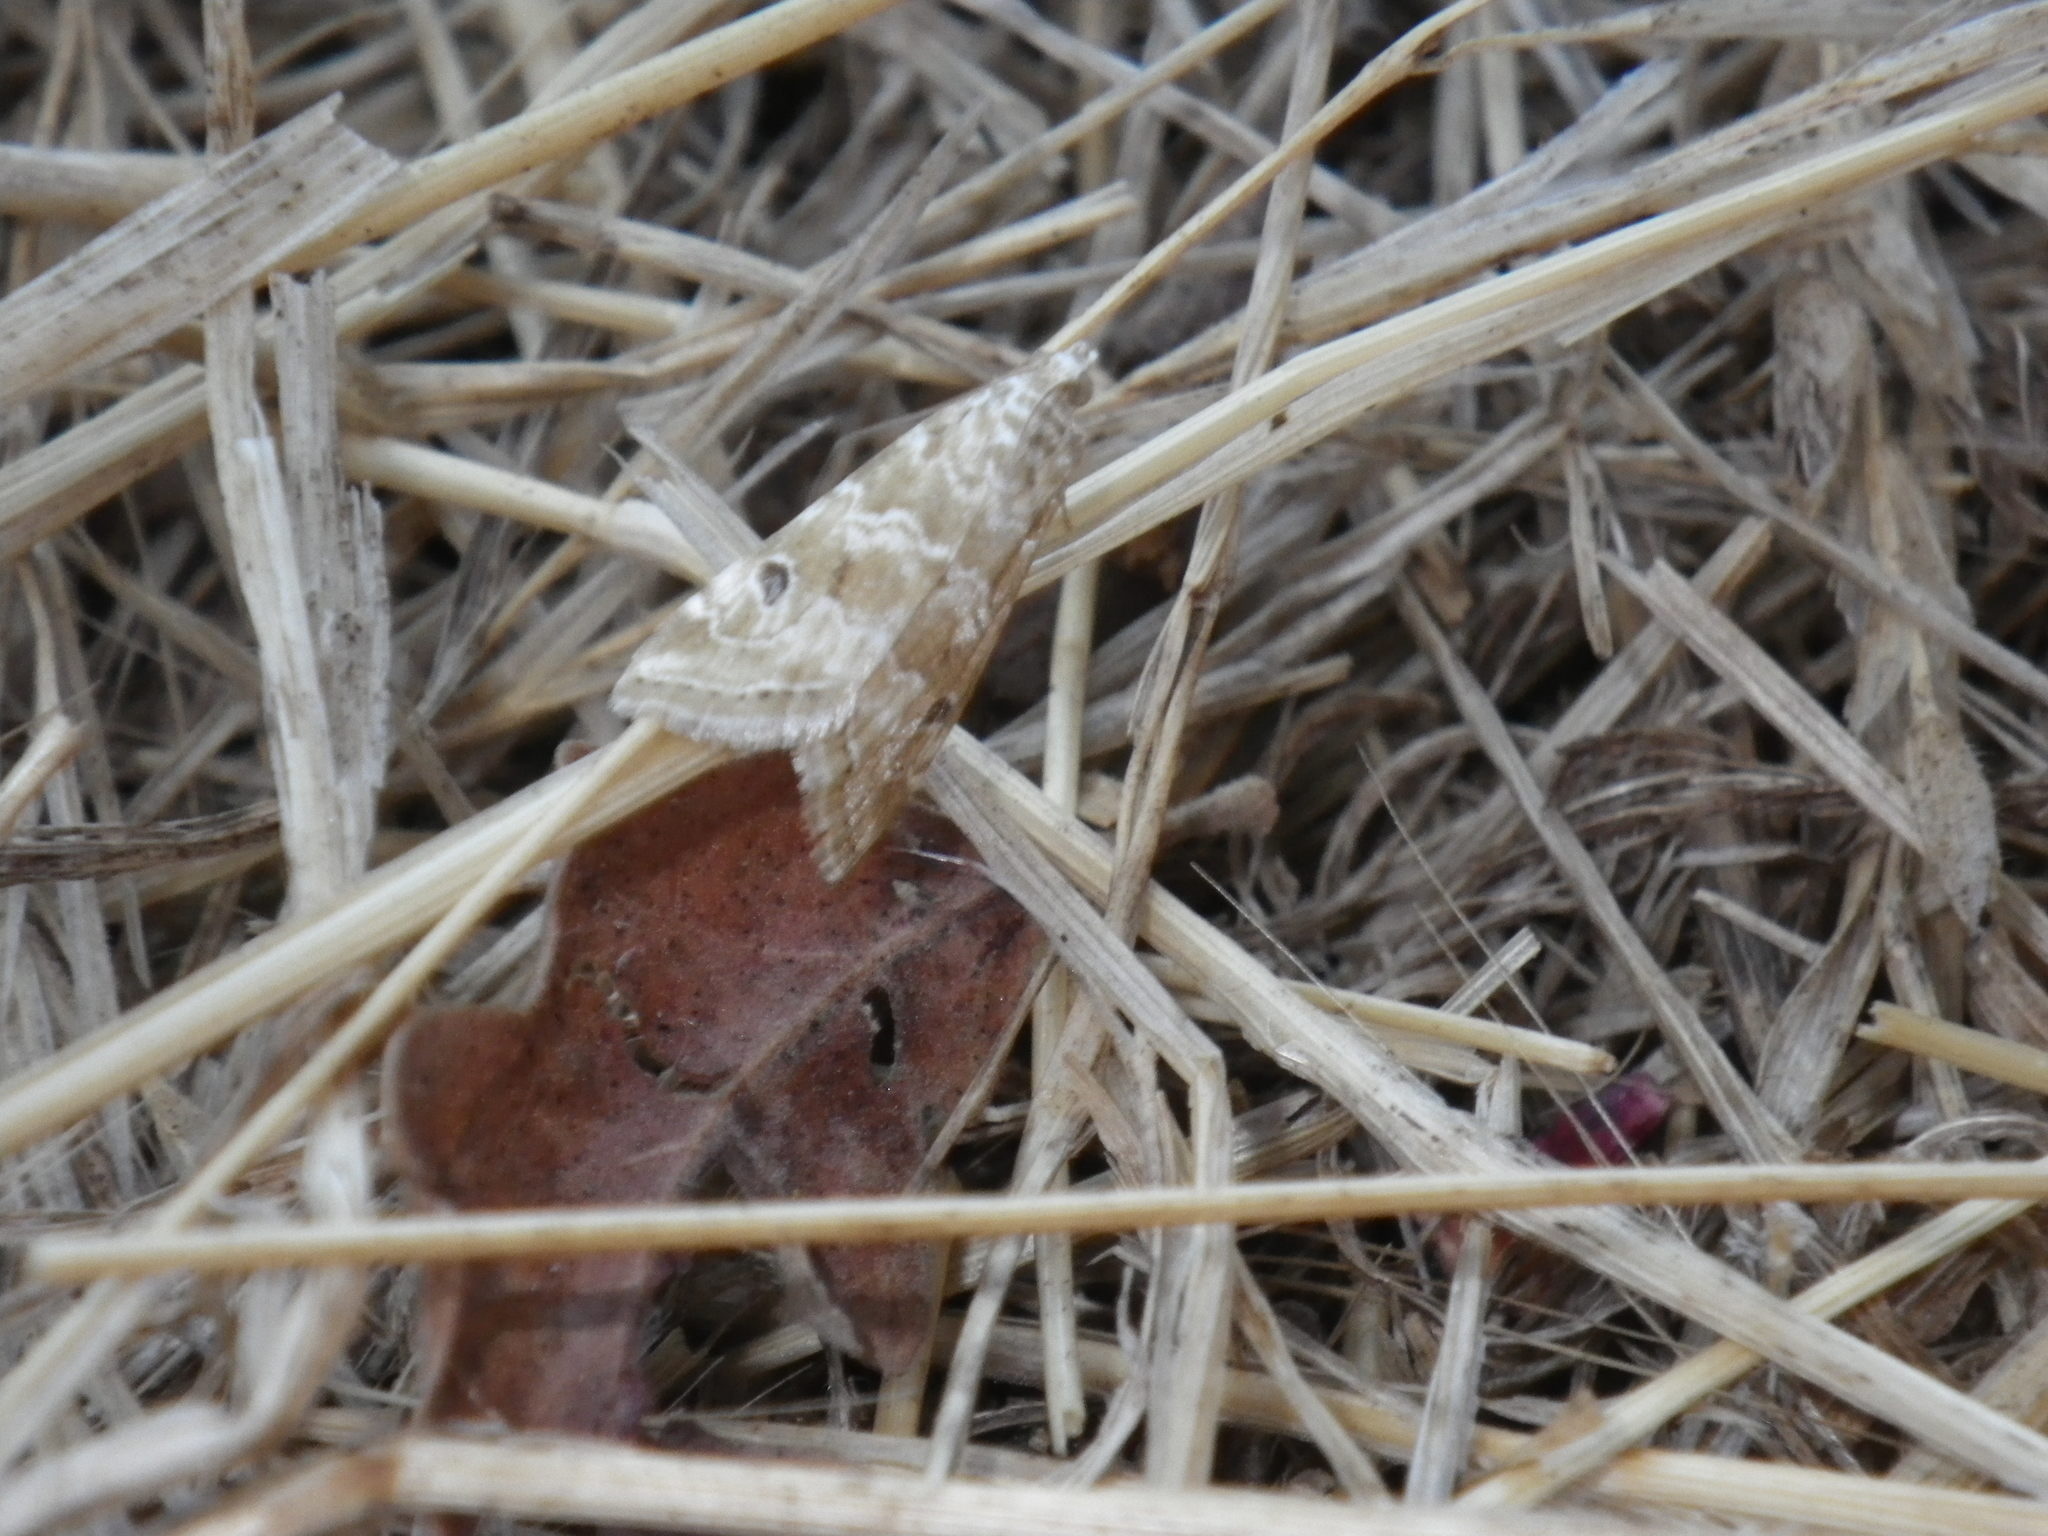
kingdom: Animalia
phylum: Arthropoda
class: Insecta
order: Lepidoptera
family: Crambidae
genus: Hellula
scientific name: Hellula rogatalis
